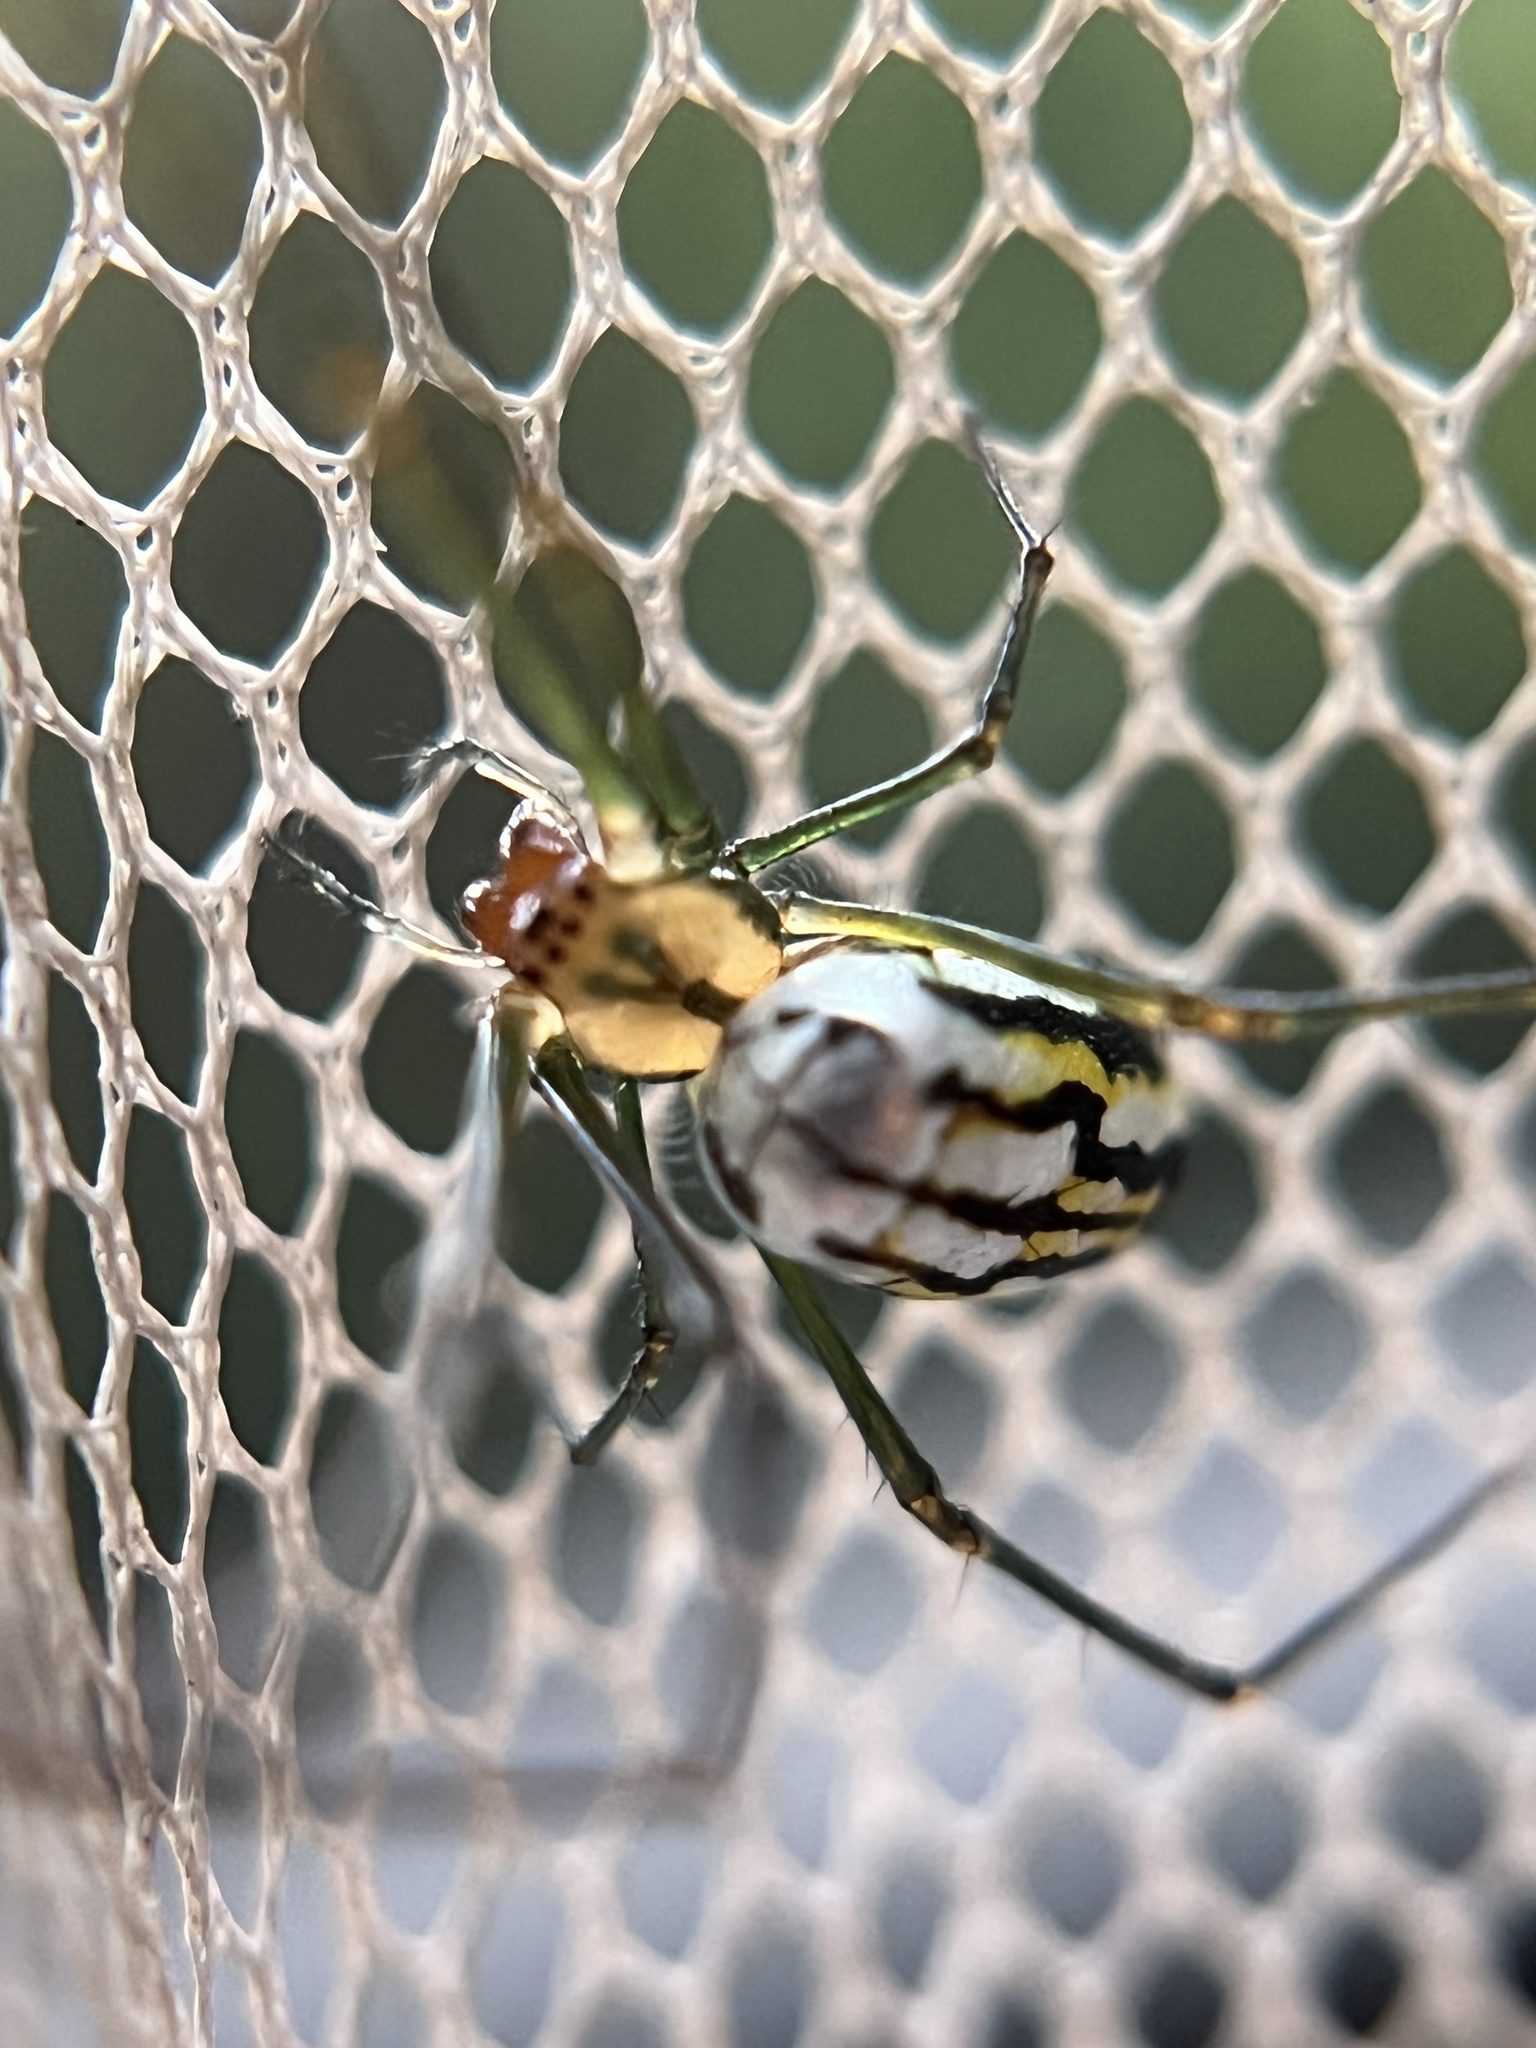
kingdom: Animalia
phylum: Arthropoda
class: Arachnida
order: Araneae
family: Tetragnathidae
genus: Leucauge
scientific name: Leucauge argyra
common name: Longjawed orb weavers
